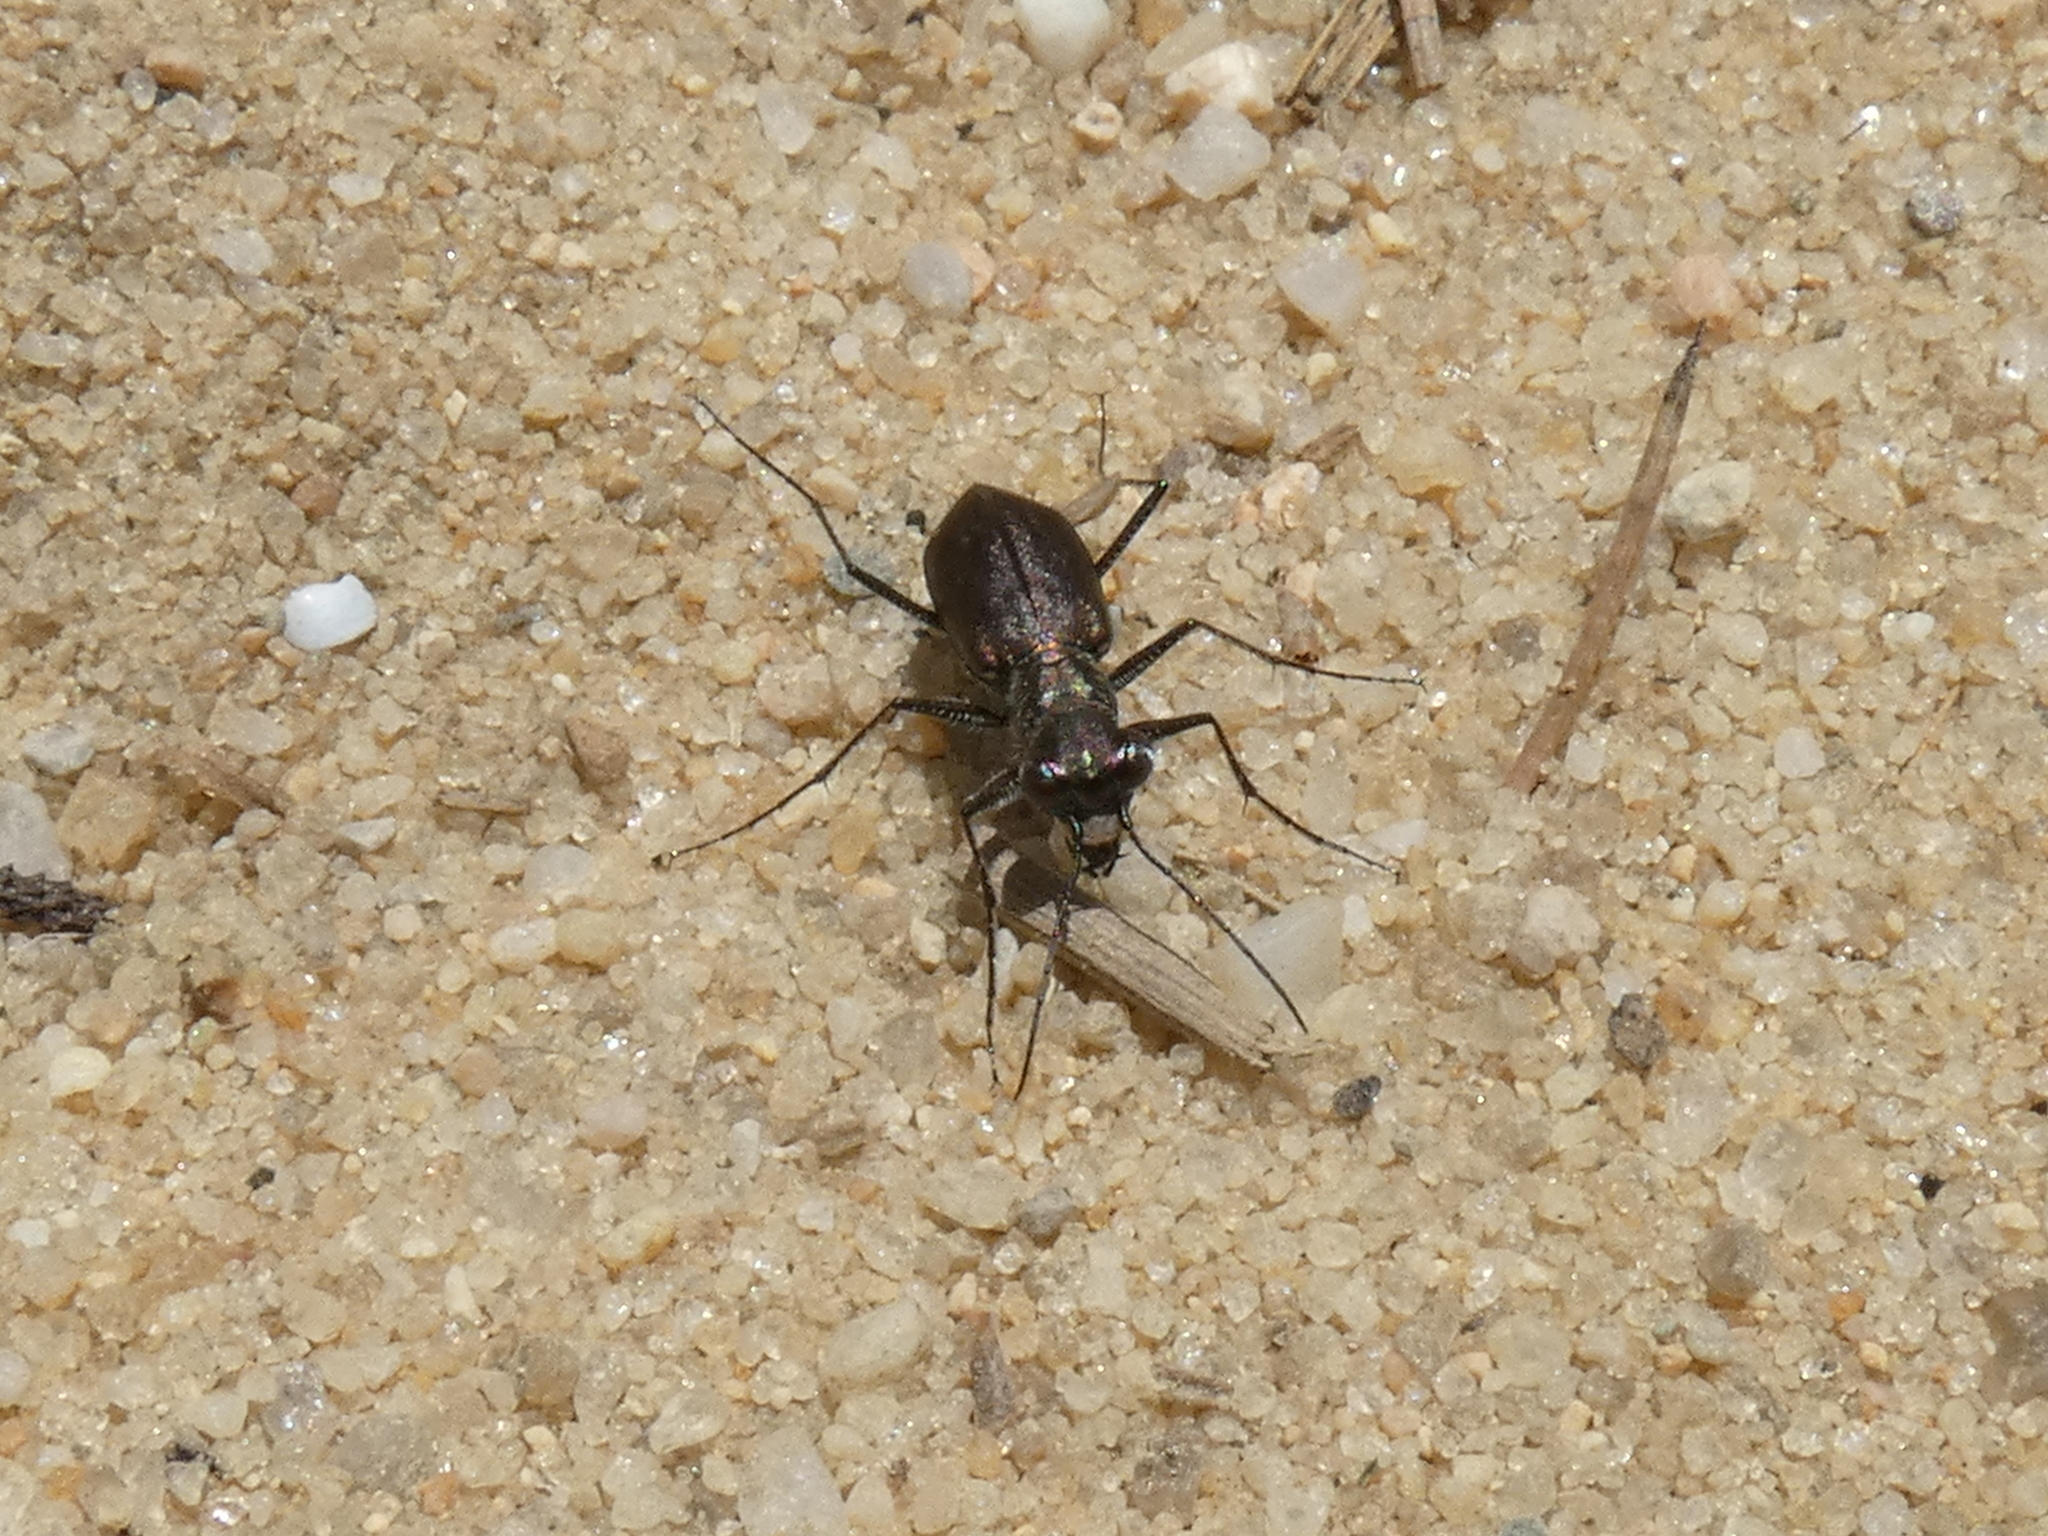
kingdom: Animalia
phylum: Arthropoda
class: Insecta
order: Coleoptera
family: Carabidae
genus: Cicindela
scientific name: Cicindela punctulata
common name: Punctured tiger beetle
